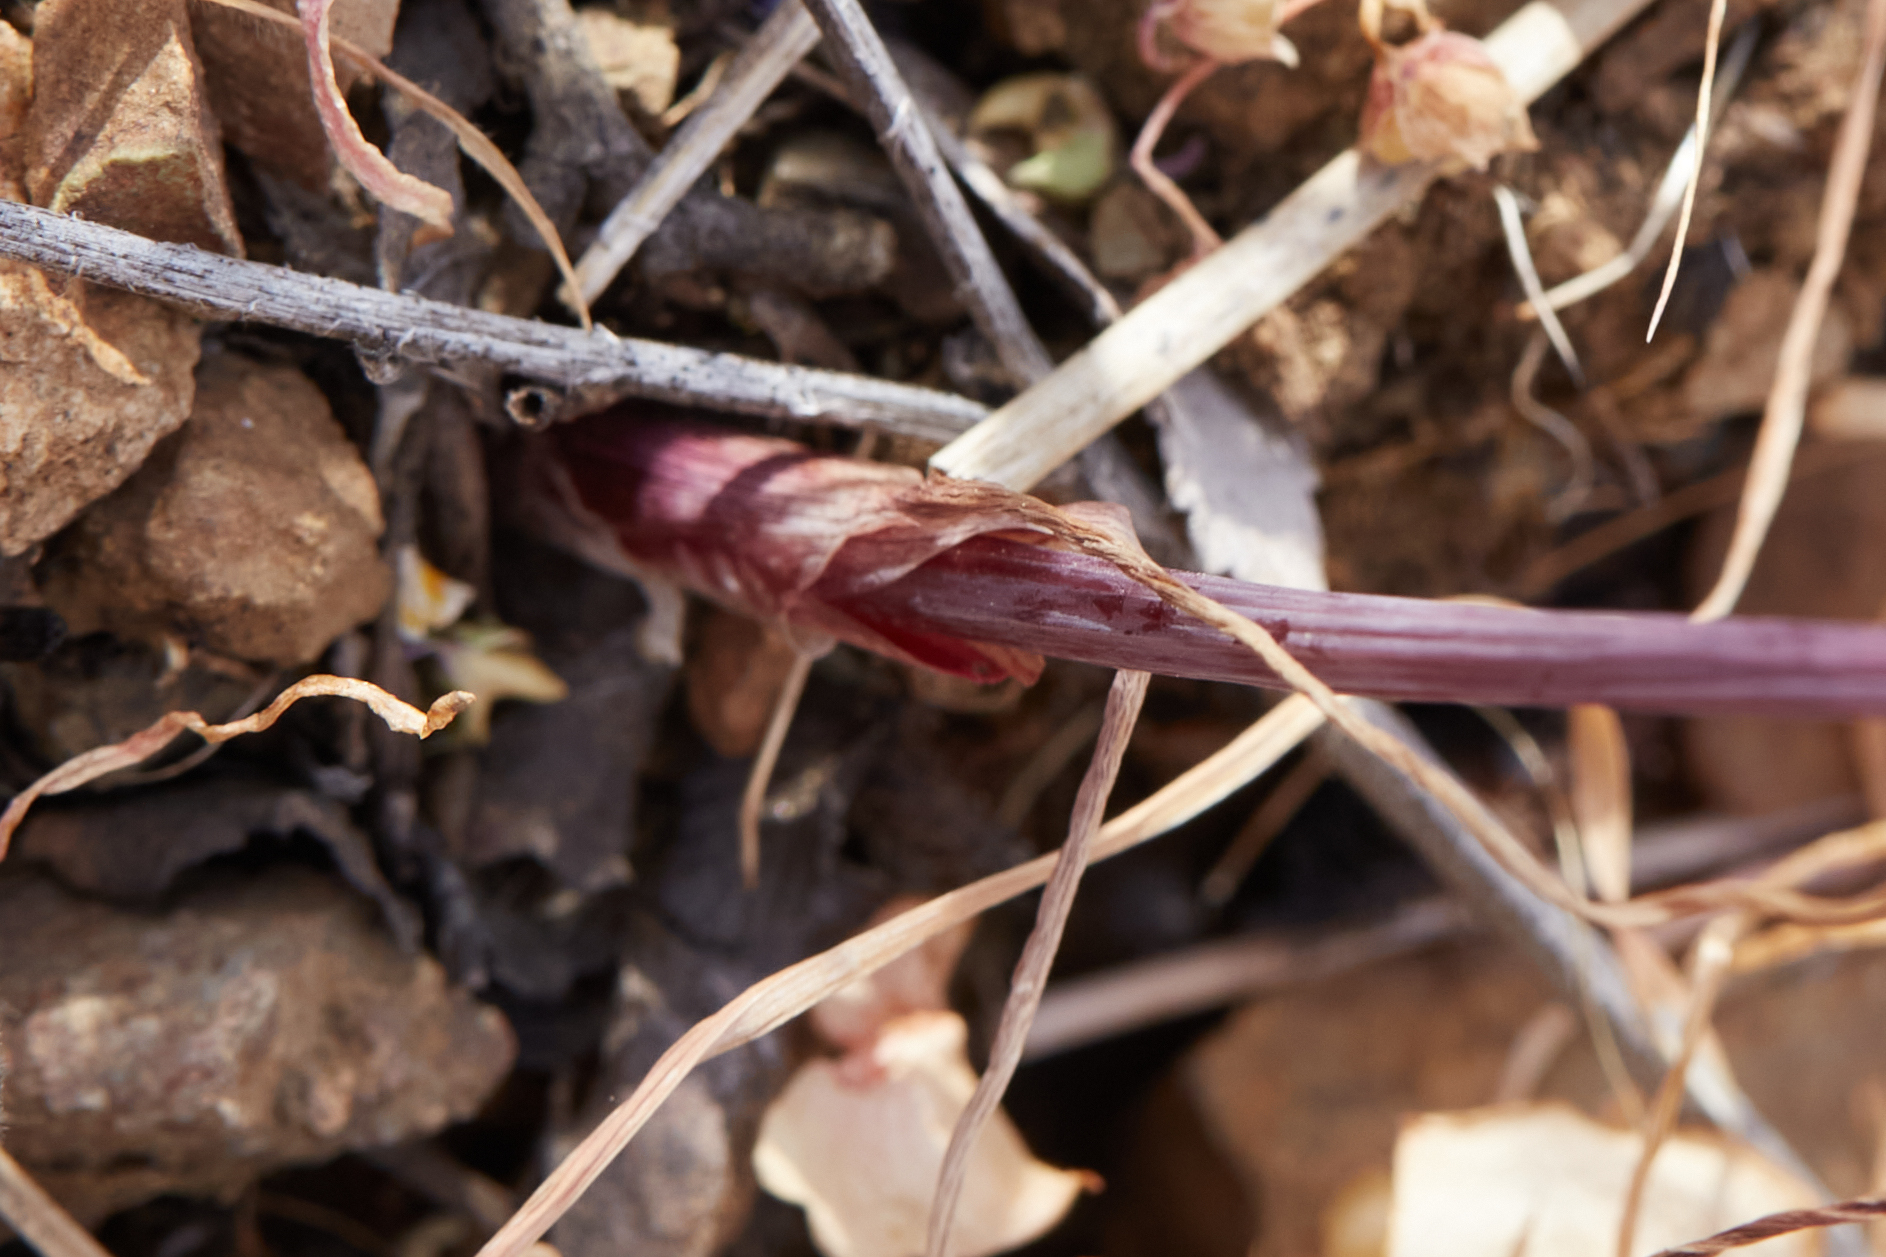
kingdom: Plantae
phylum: Tracheophyta
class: Liliopsida
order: Asparagales
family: Amaryllidaceae
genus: Allium
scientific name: Allium crispum
